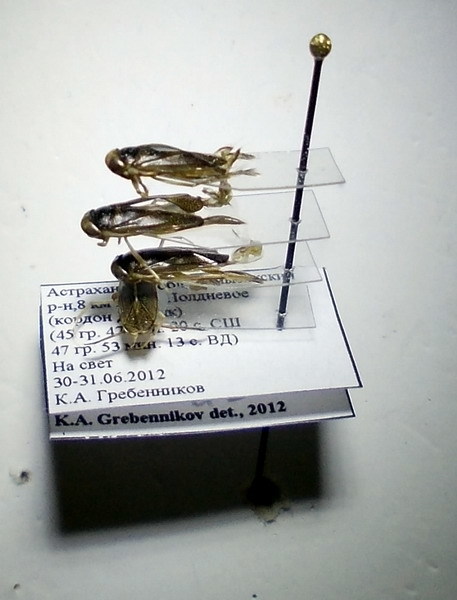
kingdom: Animalia
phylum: Arthropoda
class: Insecta
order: Hemiptera
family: Corixidae
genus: Sigara
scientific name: Sigara striata
